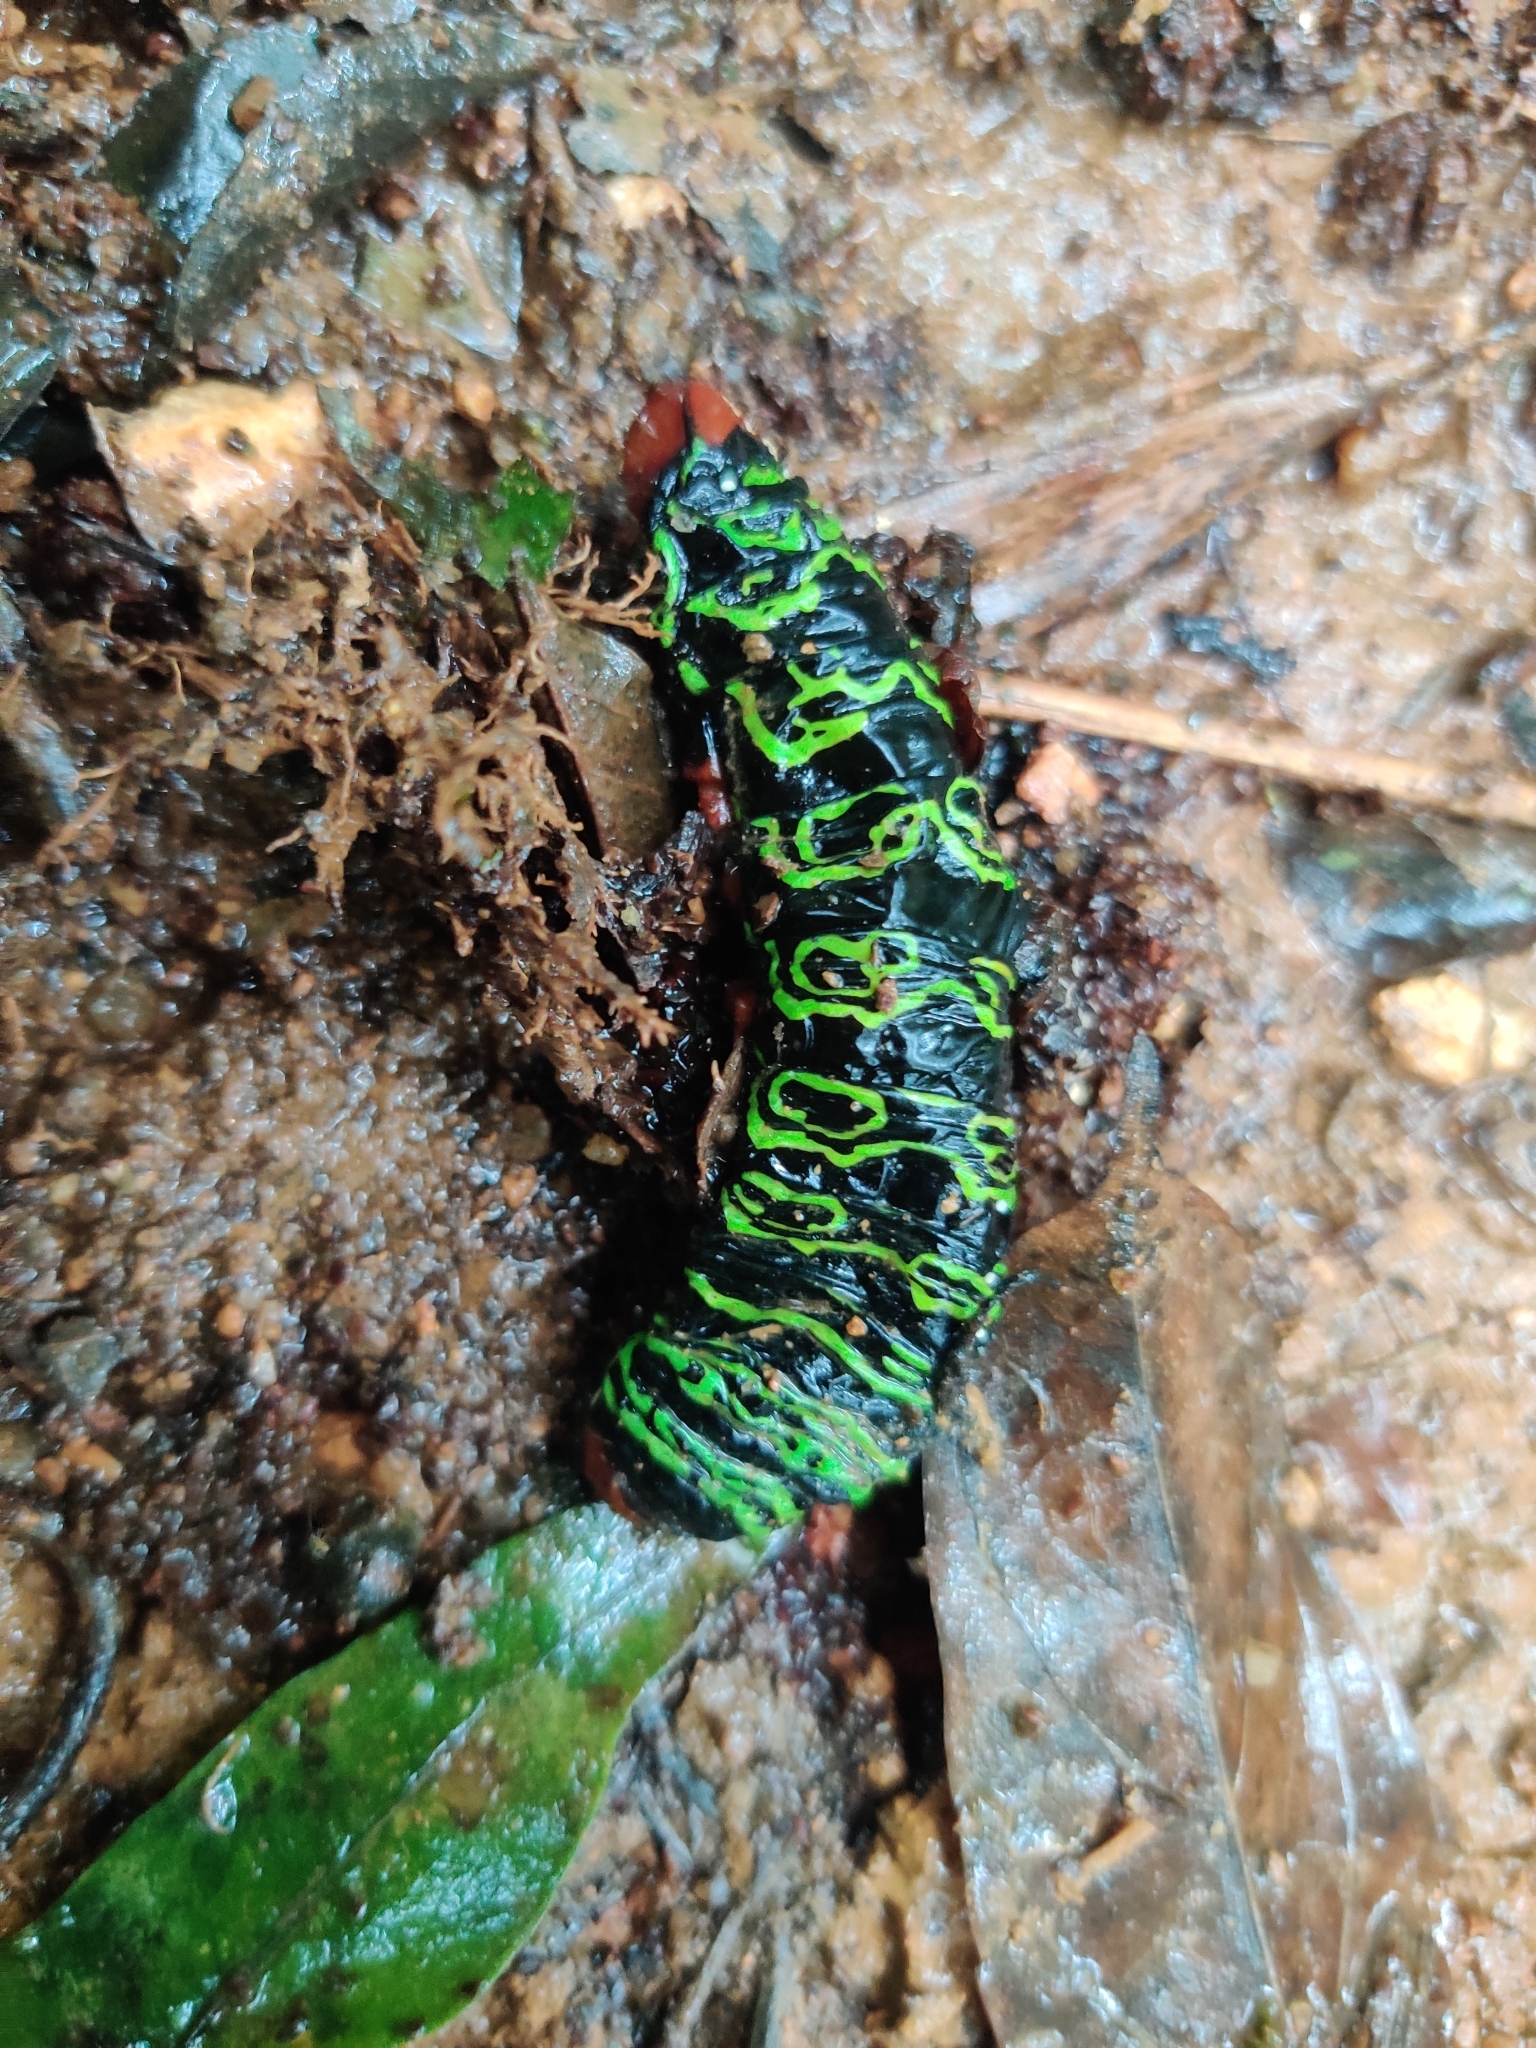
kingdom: Animalia
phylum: Arthropoda
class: Insecta
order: Lepidoptera
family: Saturniidae
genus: Arsenura
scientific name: Arsenura armida
